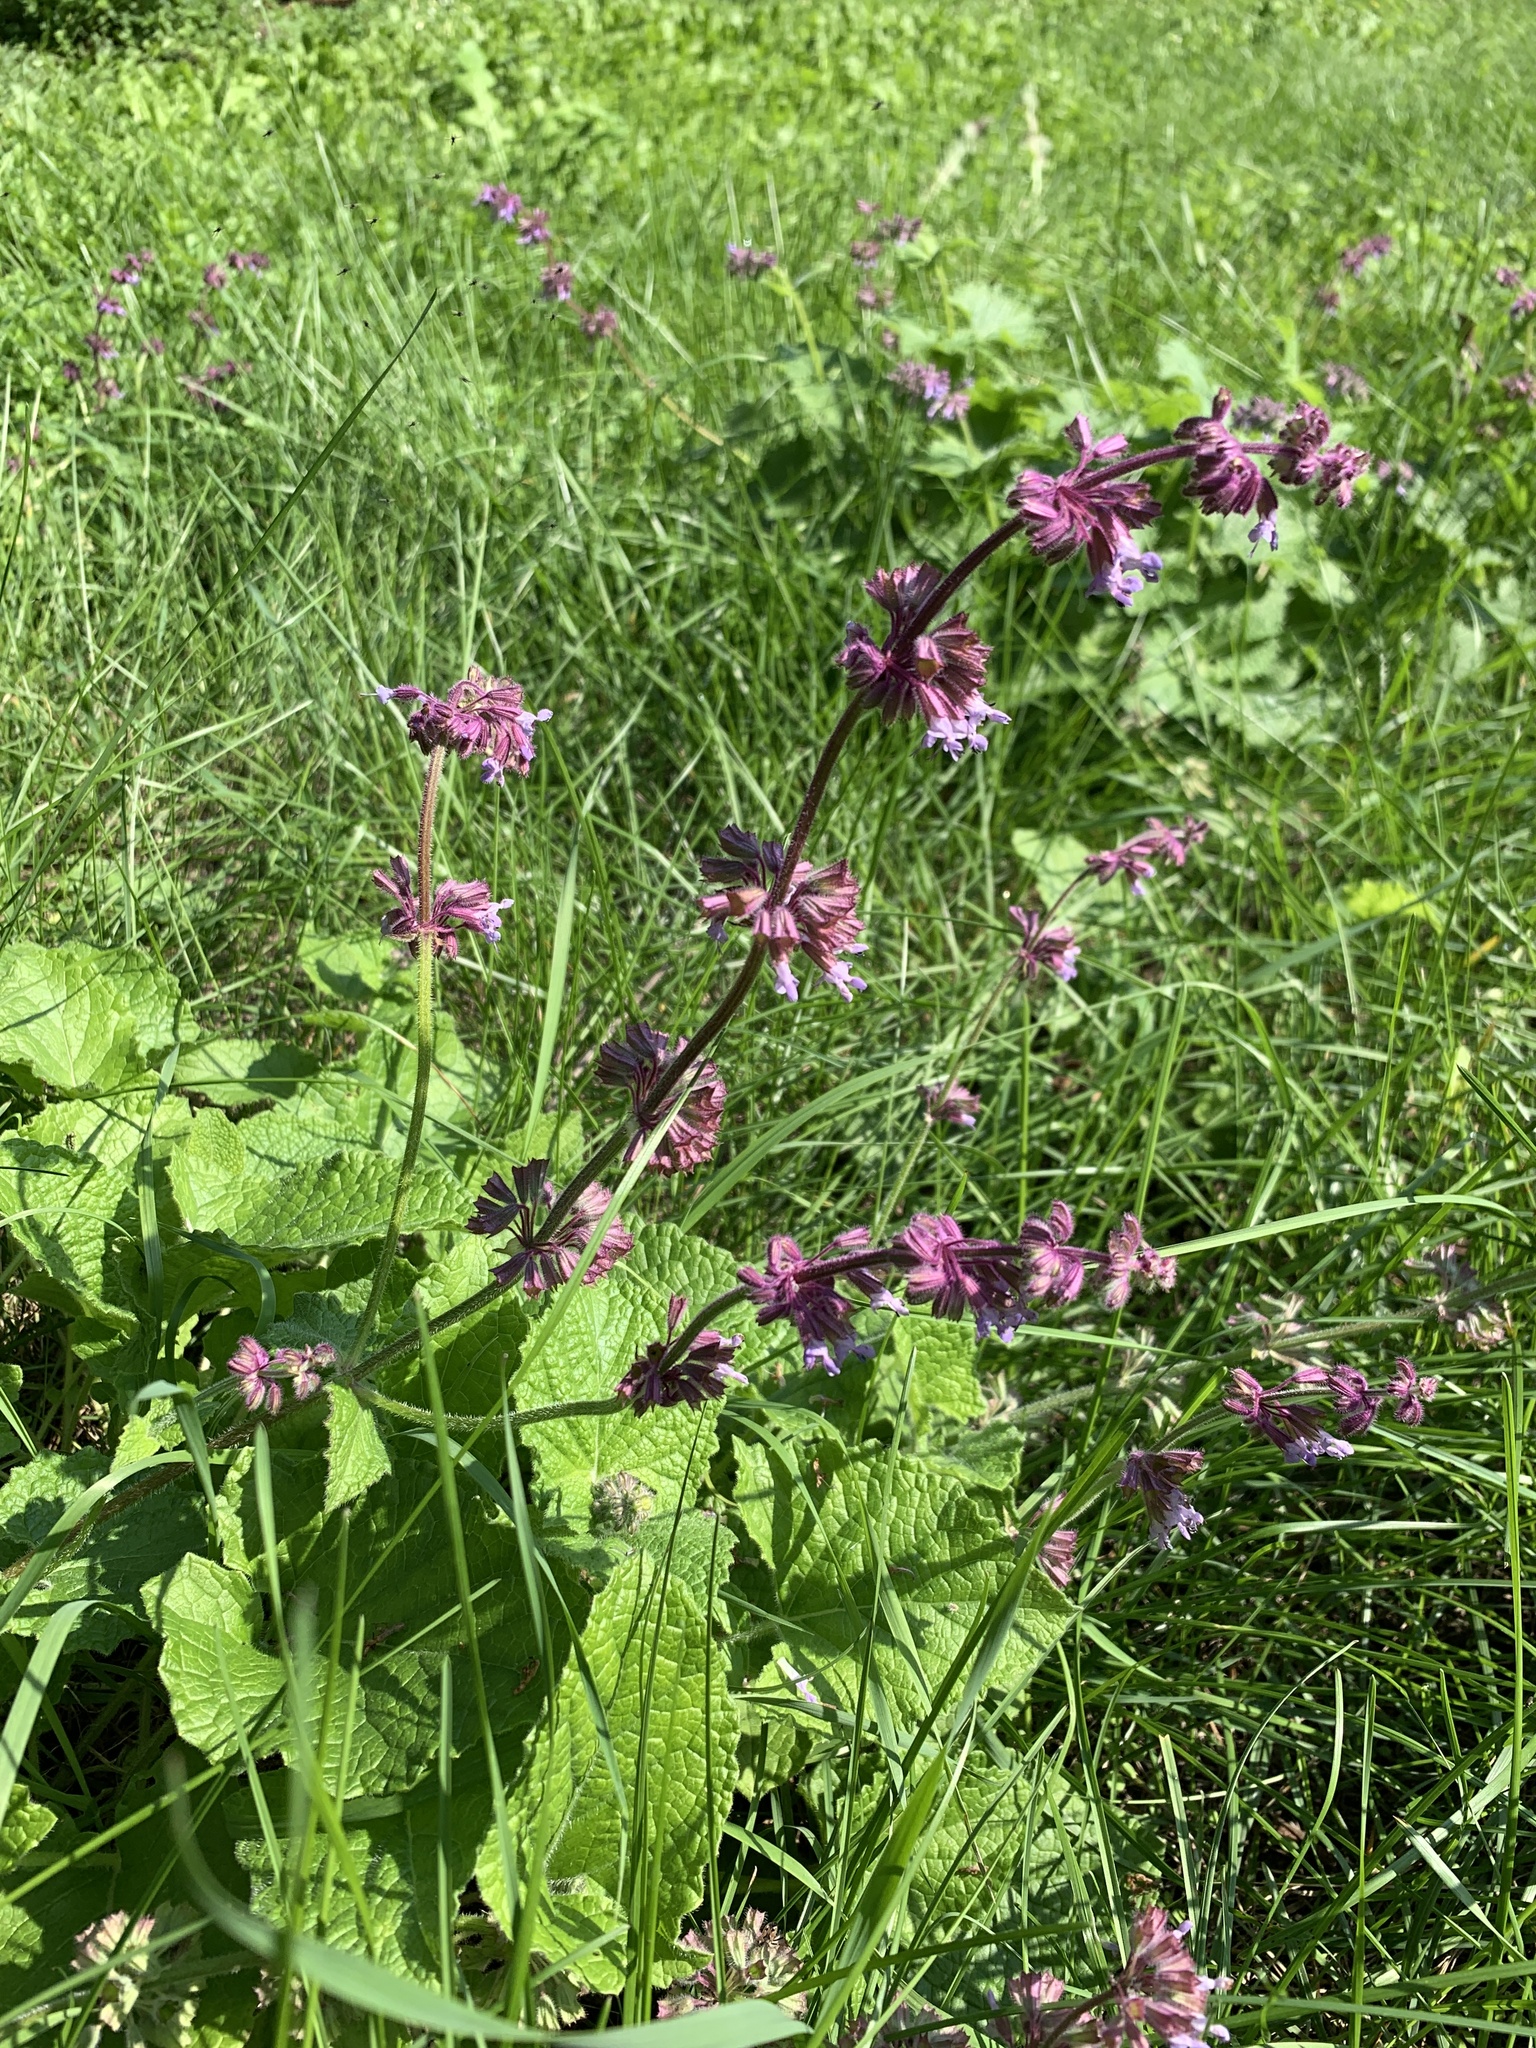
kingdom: Plantae
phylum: Tracheophyta
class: Magnoliopsida
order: Lamiales
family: Lamiaceae
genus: Salvia
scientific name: Salvia verticillata
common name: Whorled clary
